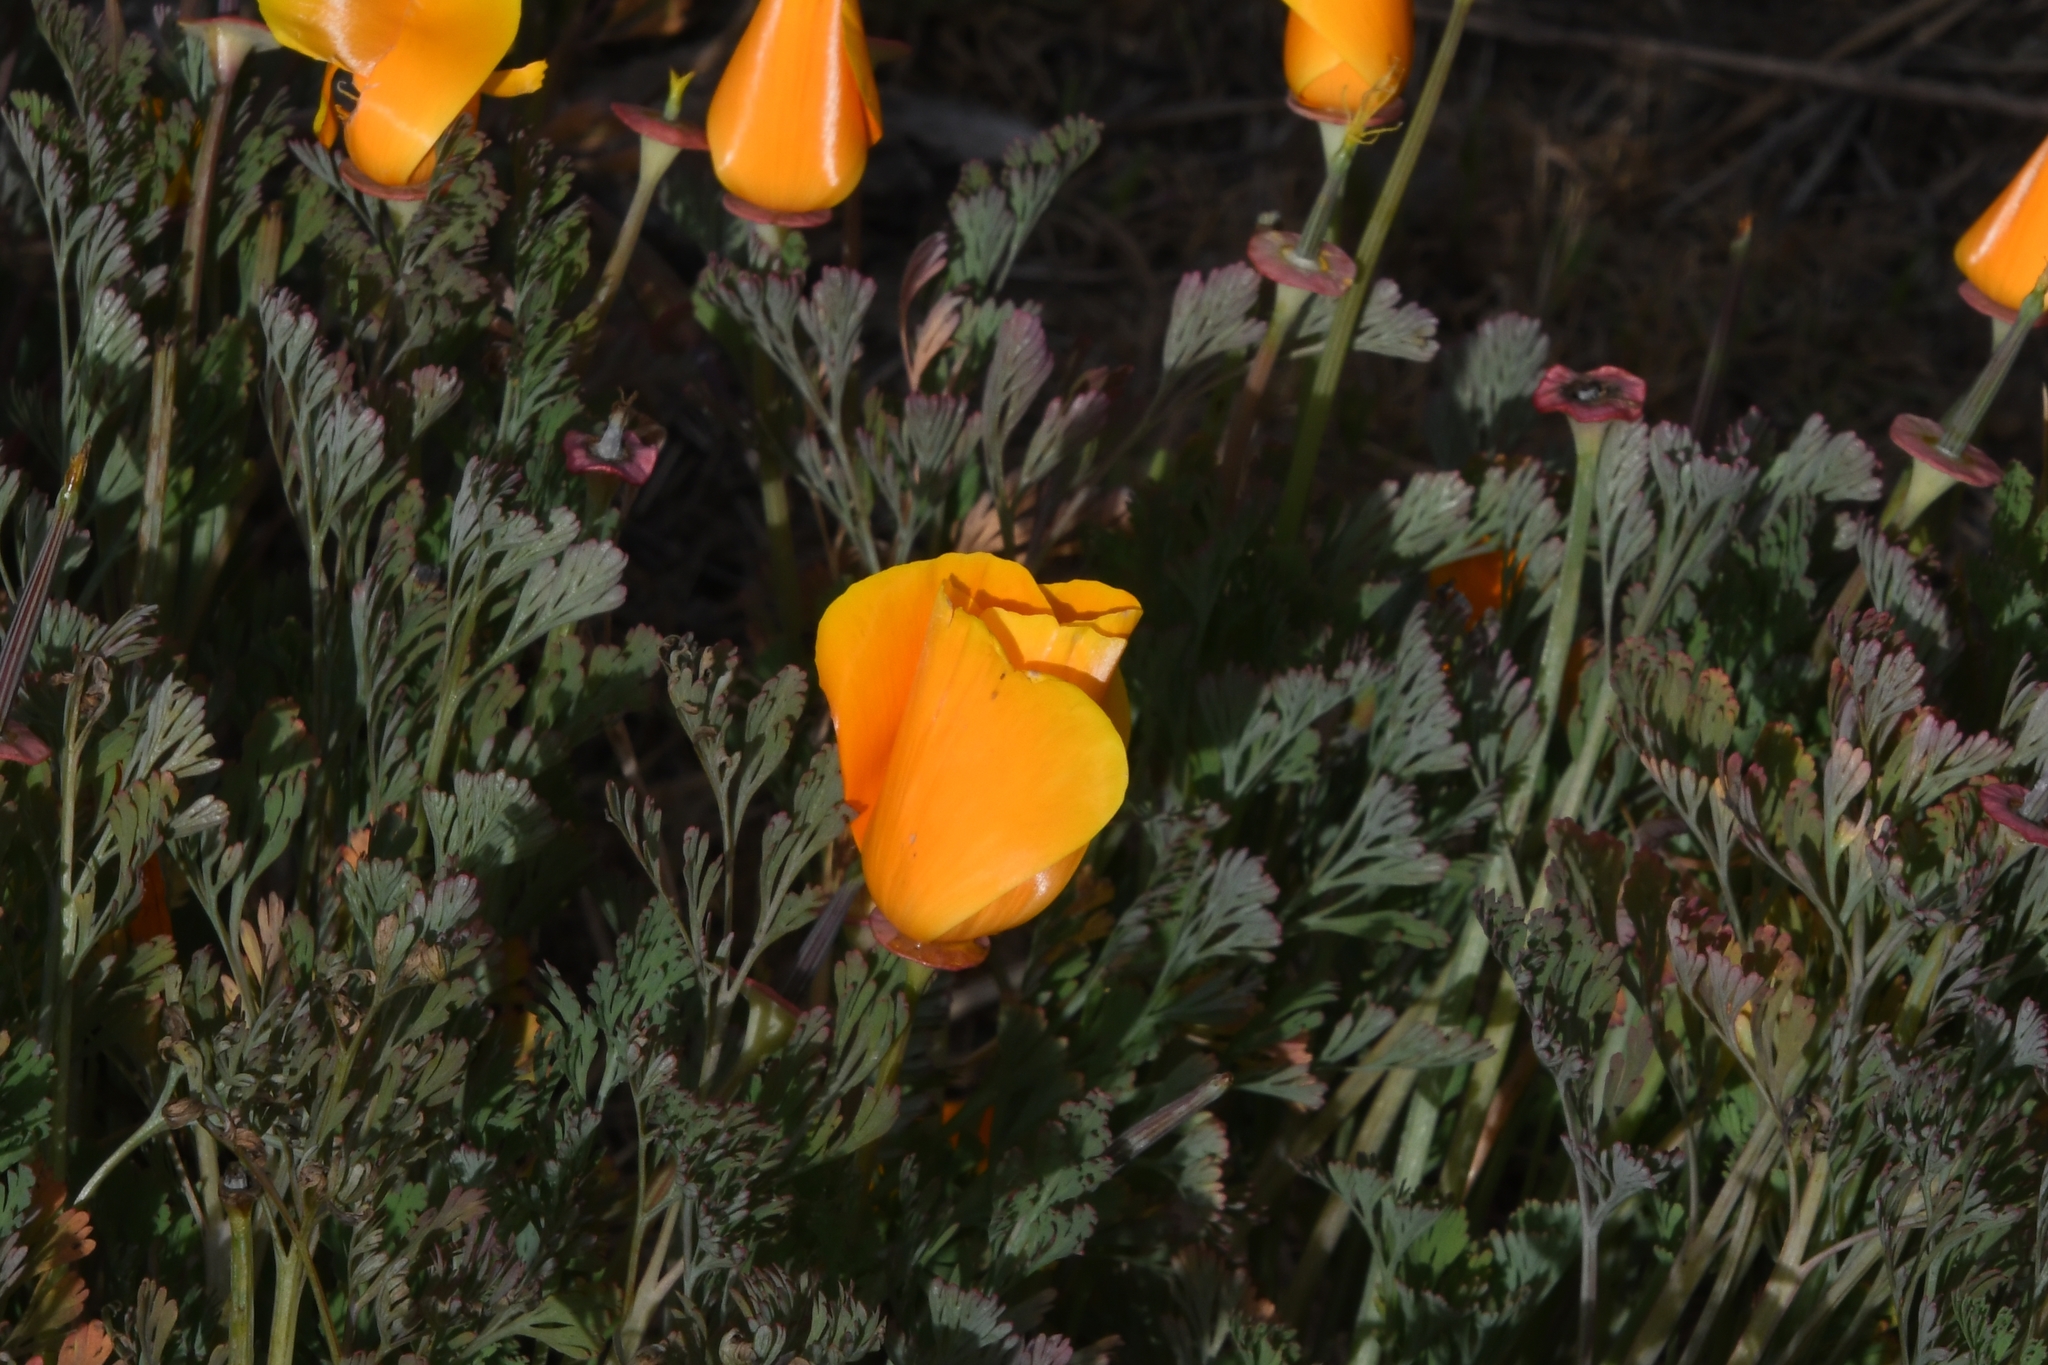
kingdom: Plantae
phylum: Tracheophyta
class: Magnoliopsida
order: Ranunculales
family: Papaveraceae
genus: Eschscholzia
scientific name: Eschscholzia californica
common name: California poppy
